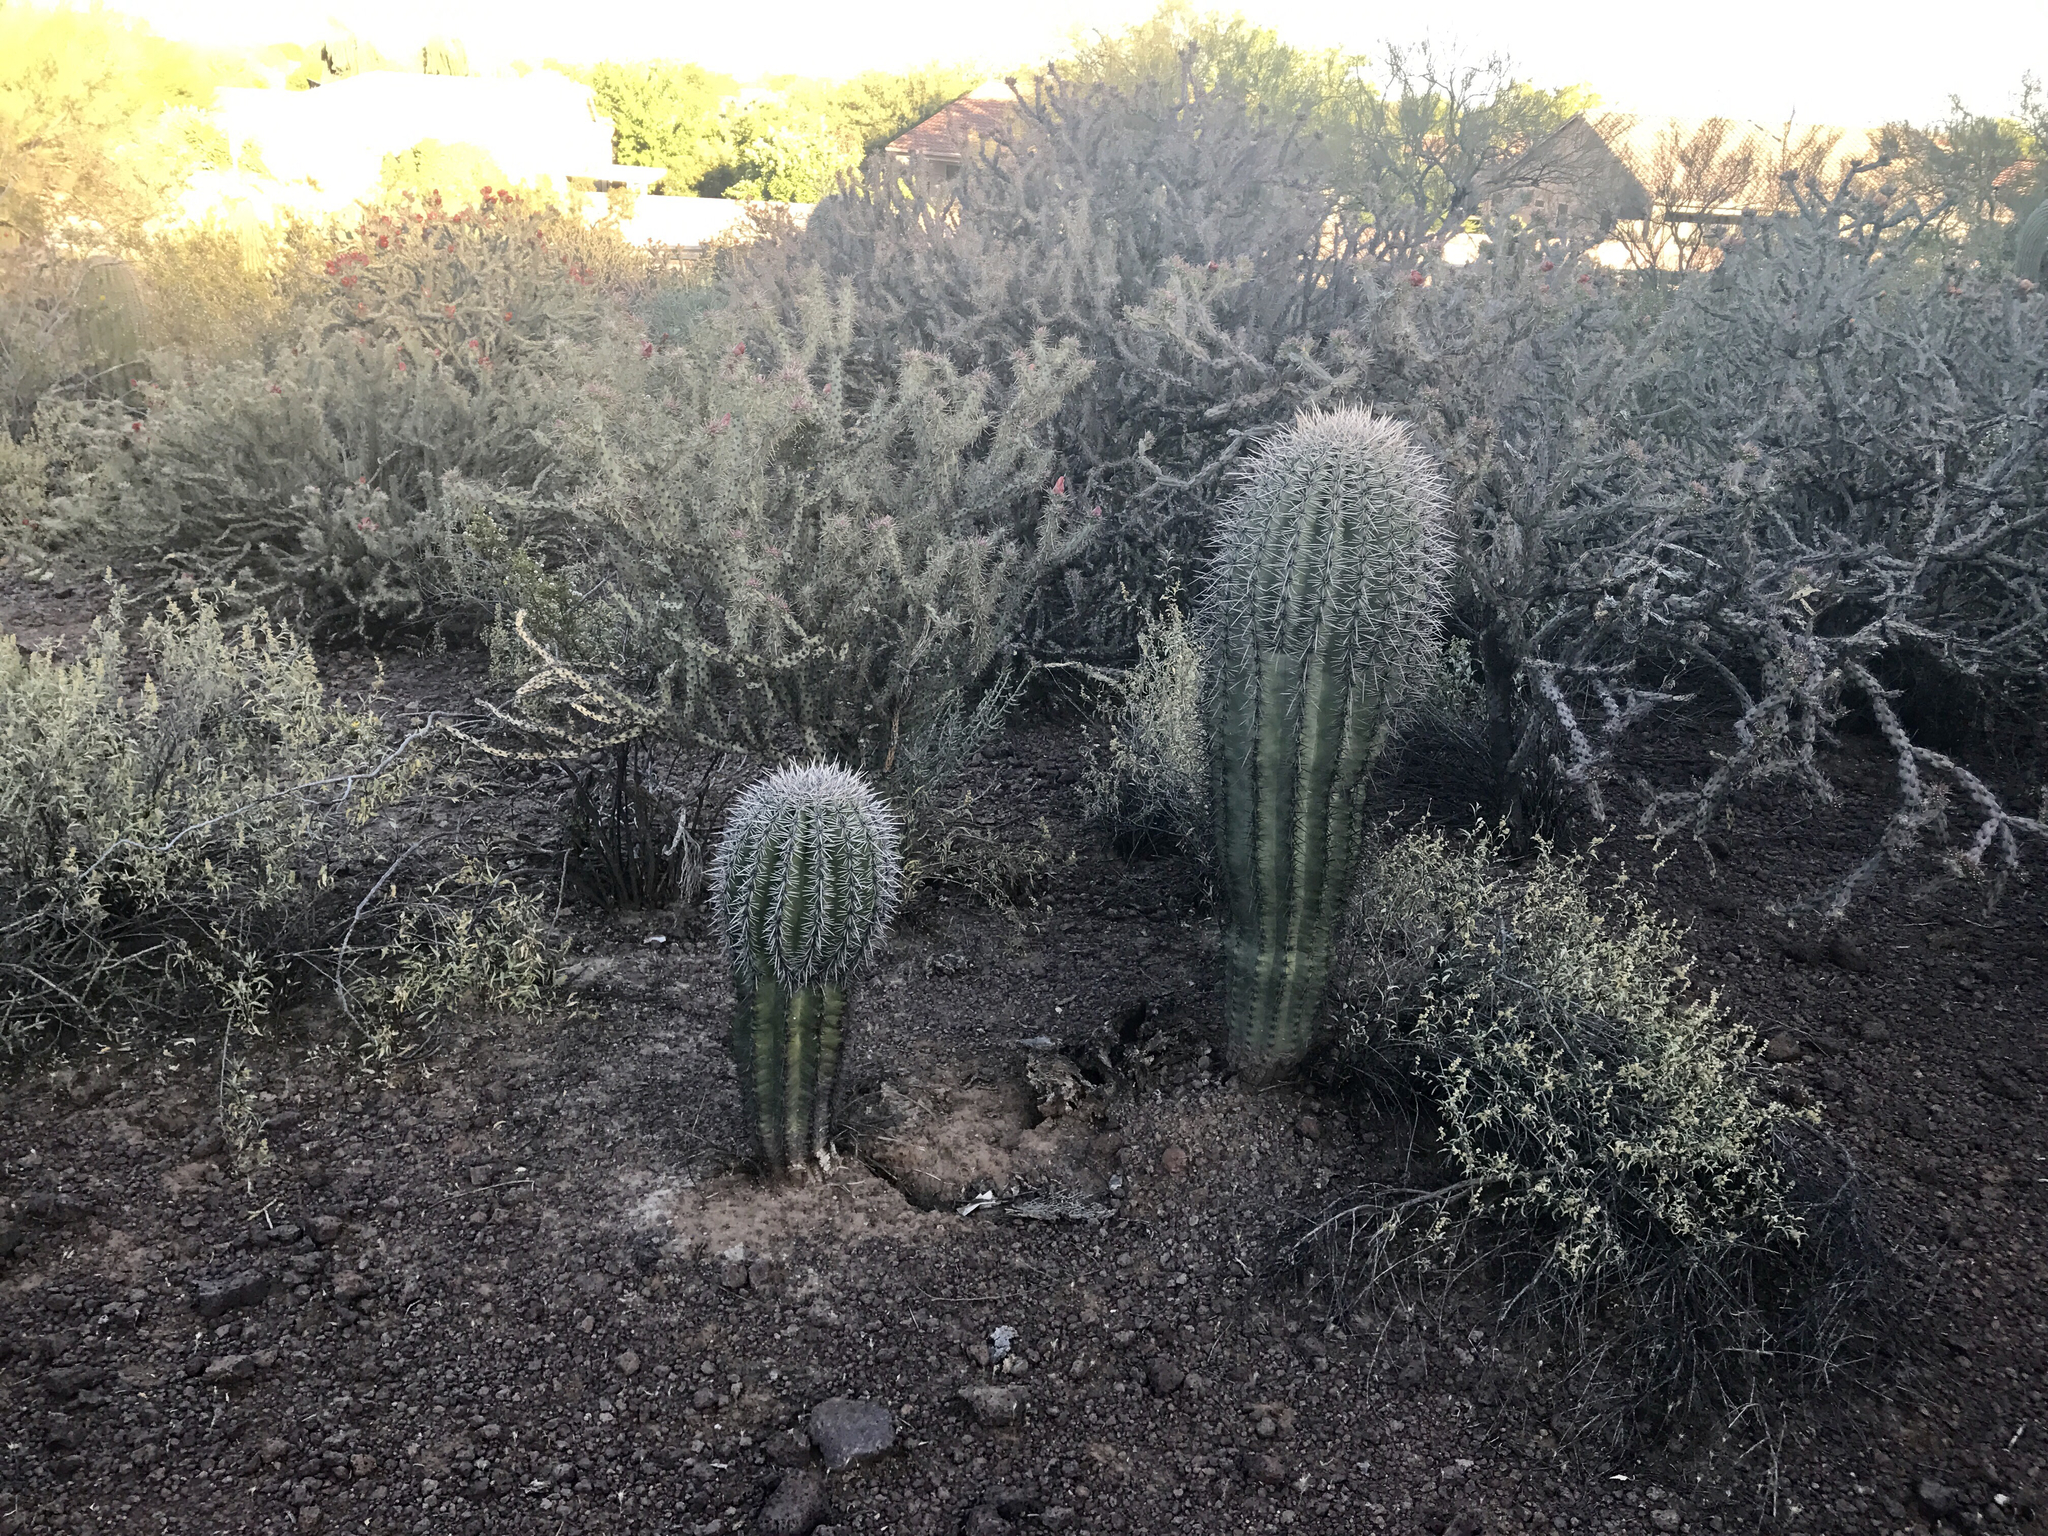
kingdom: Plantae
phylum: Tracheophyta
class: Magnoliopsida
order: Caryophyllales
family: Cactaceae
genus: Carnegiea
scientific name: Carnegiea gigantea
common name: Saguaro
